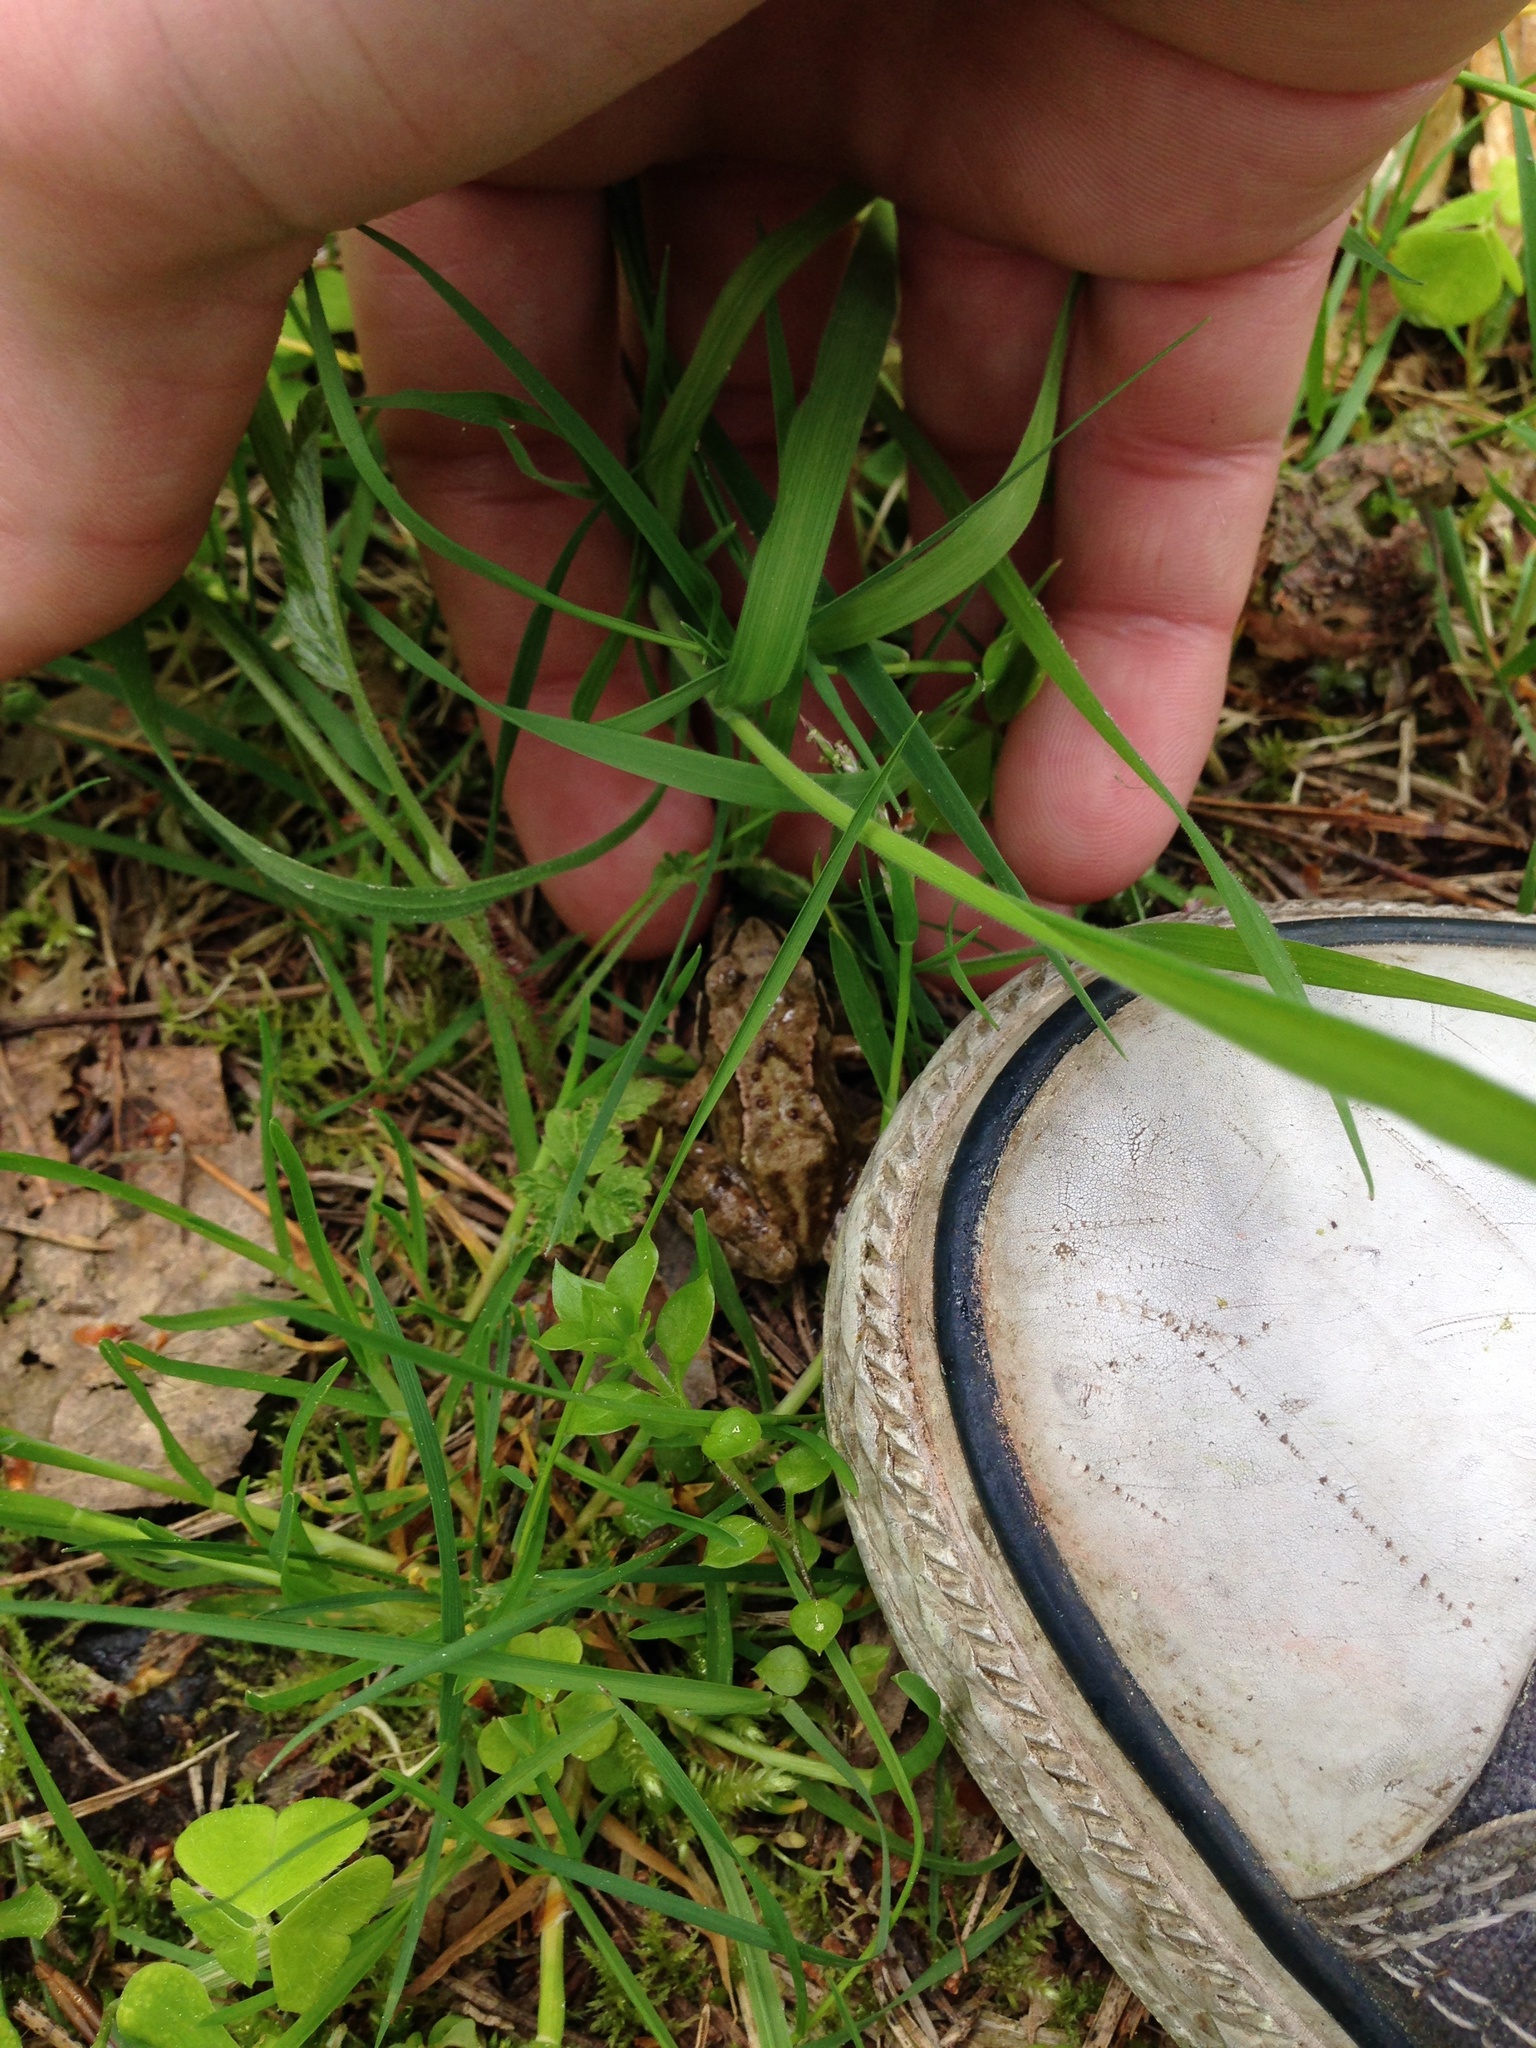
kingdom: Animalia
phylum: Chordata
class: Amphibia
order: Anura
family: Ranidae
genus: Rana
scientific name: Rana temporaria
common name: Common frog
